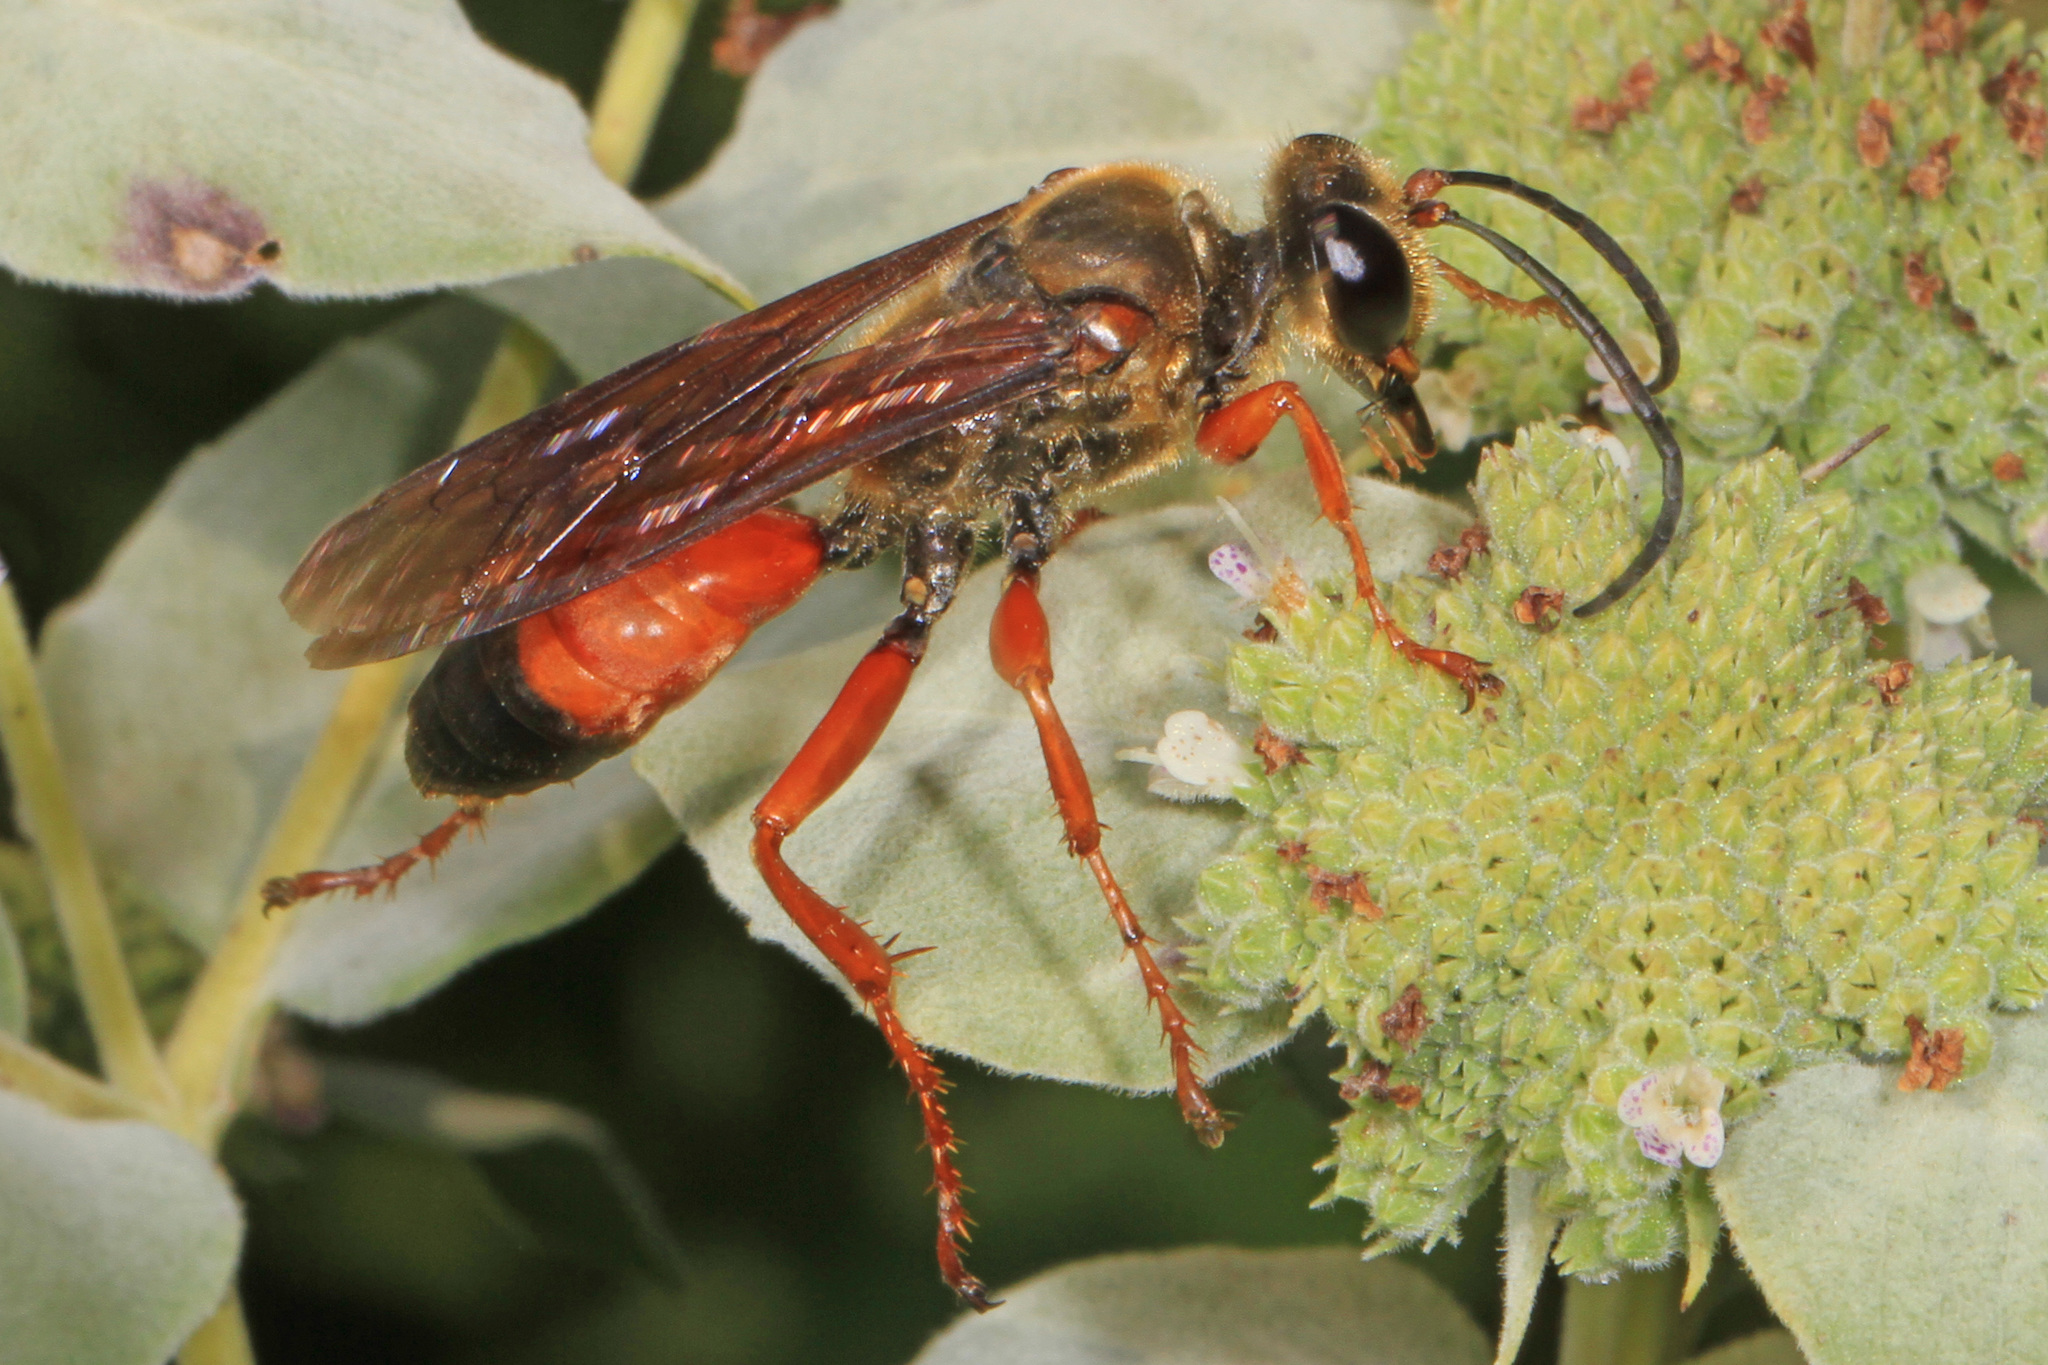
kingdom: Animalia
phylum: Arthropoda
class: Insecta
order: Hymenoptera
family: Sphecidae
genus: Sphex
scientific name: Sphex ichneumoneus
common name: Great golden digger wasp
